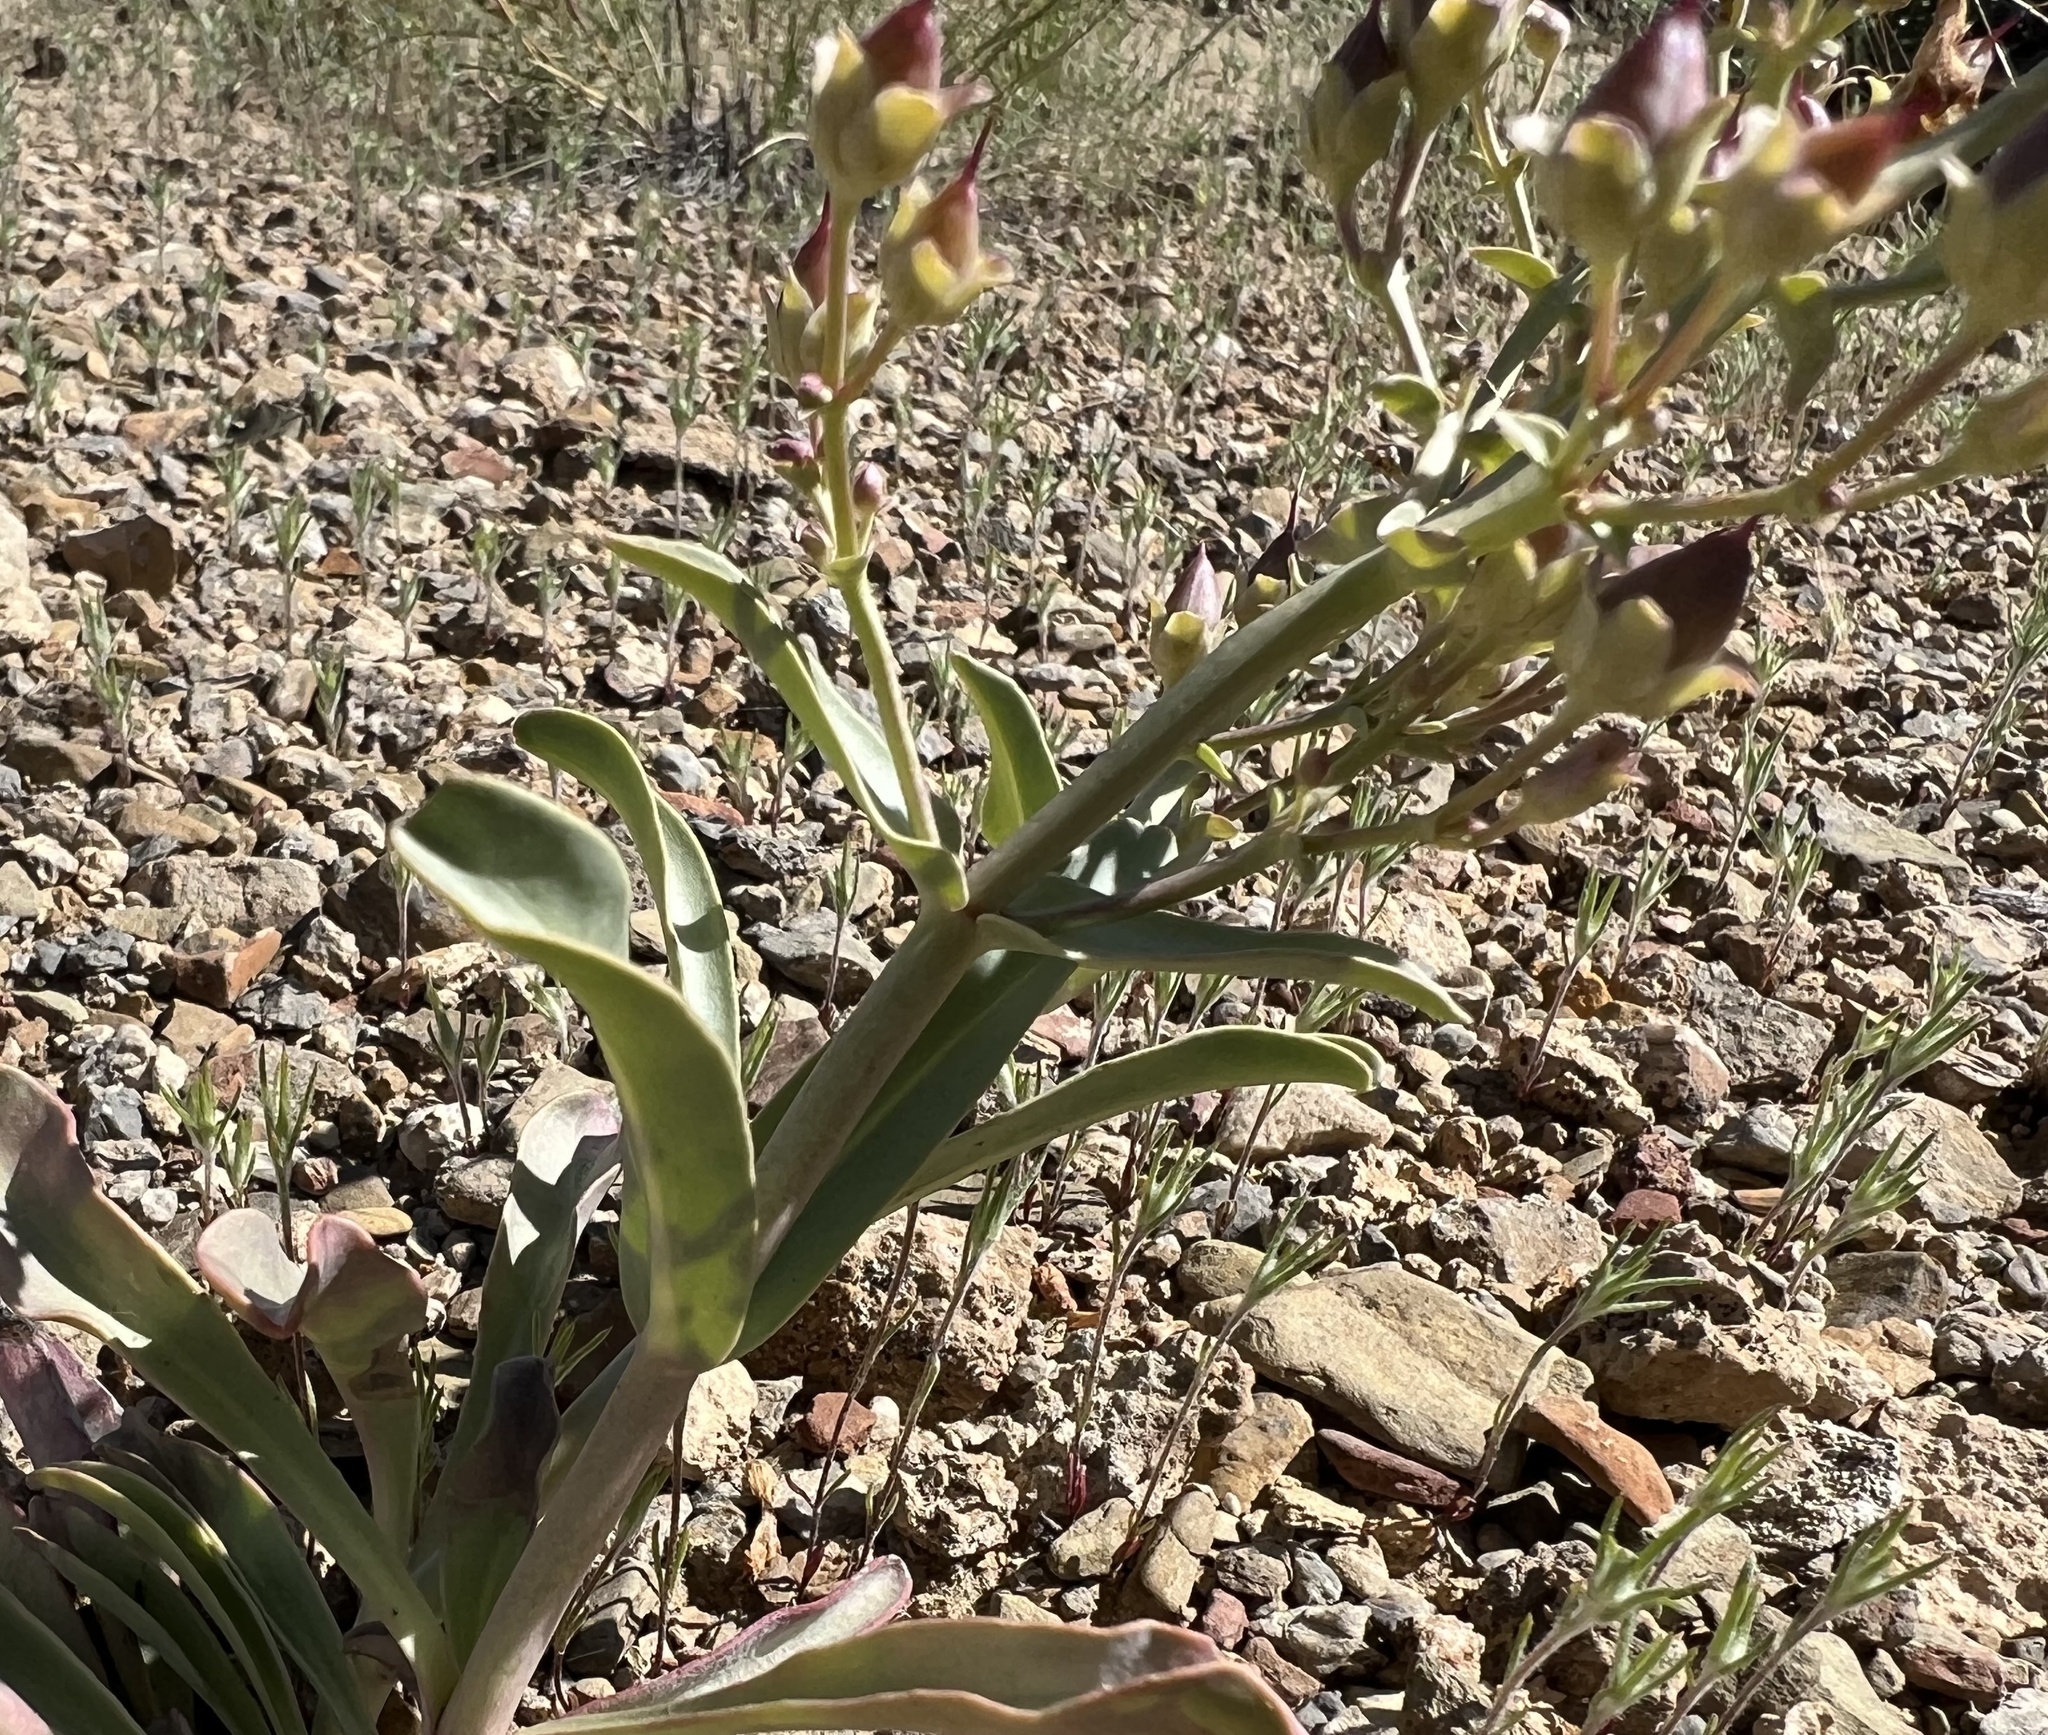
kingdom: Plantae
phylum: Tracheophyta
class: Magnoliopsida
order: Lamiales
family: Plantaginaceae
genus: Penstemon
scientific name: Penstemon patens
